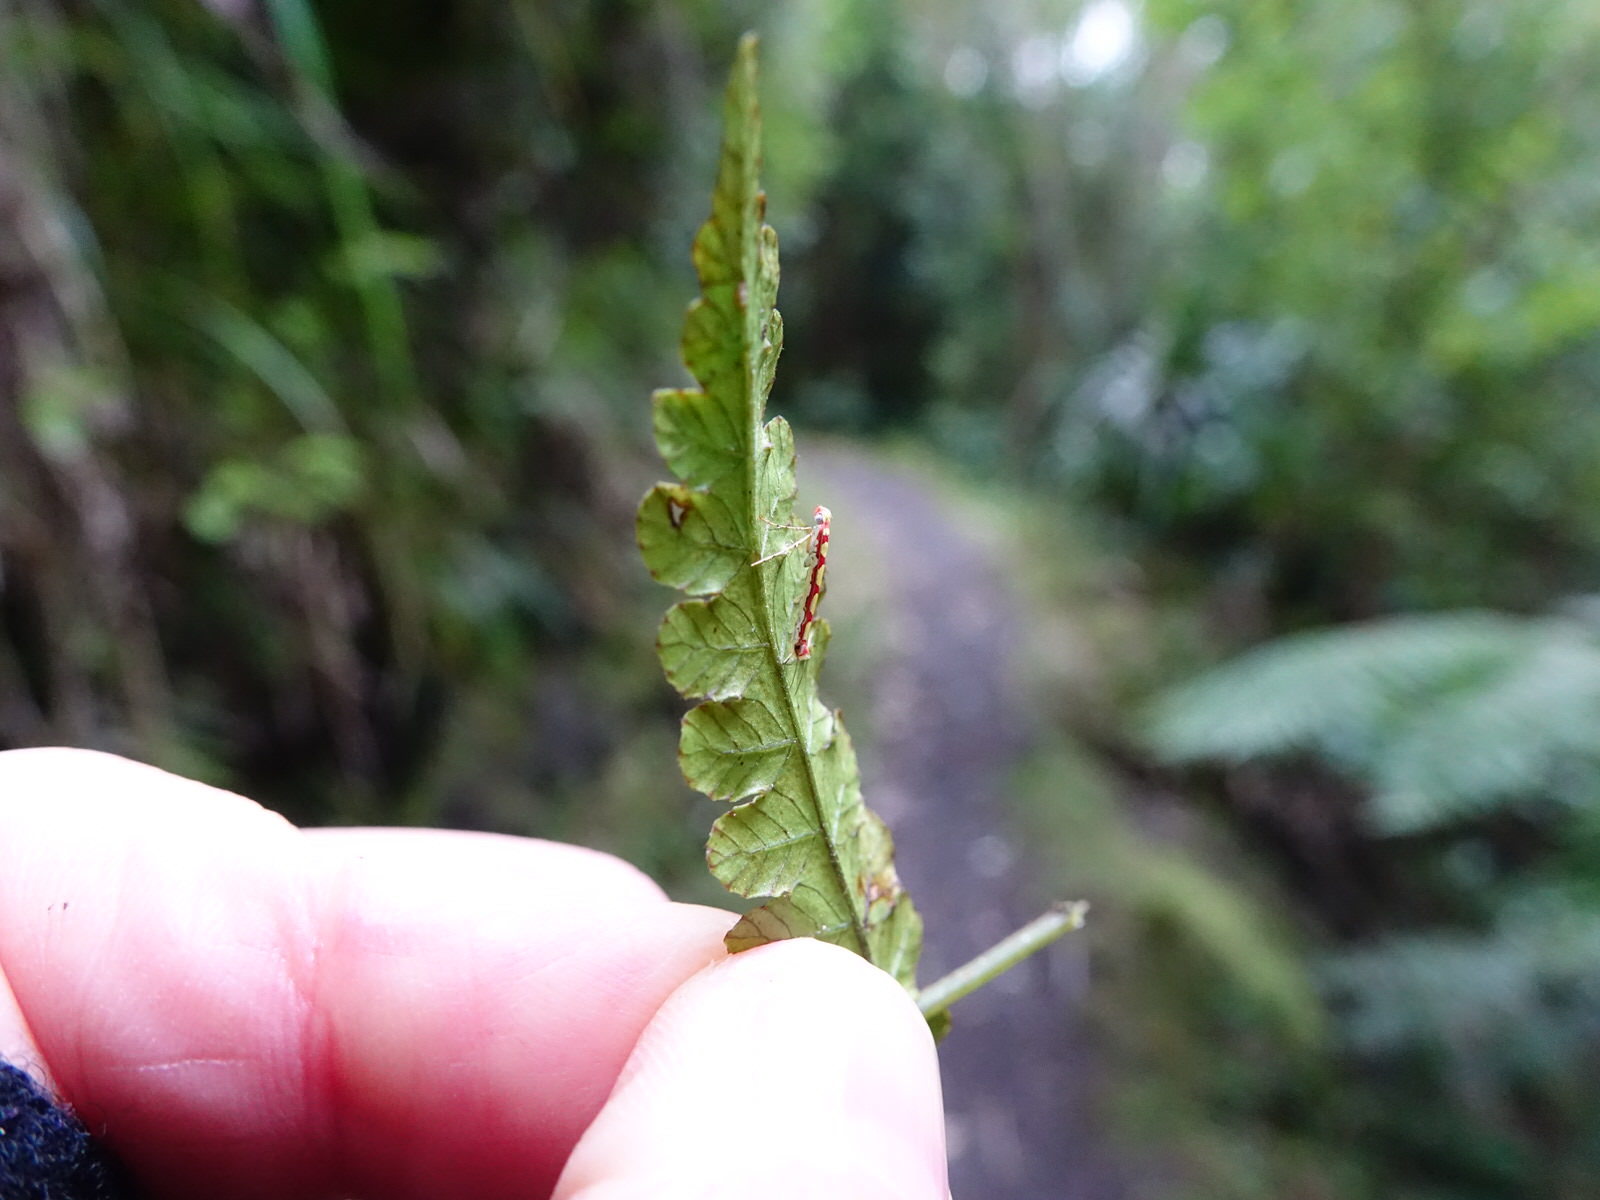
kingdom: Animalia
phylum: Arthropoda
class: Insecta
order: Lepidoptera
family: Gracillariidae
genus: Macarostola
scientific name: Macarostola miniella
